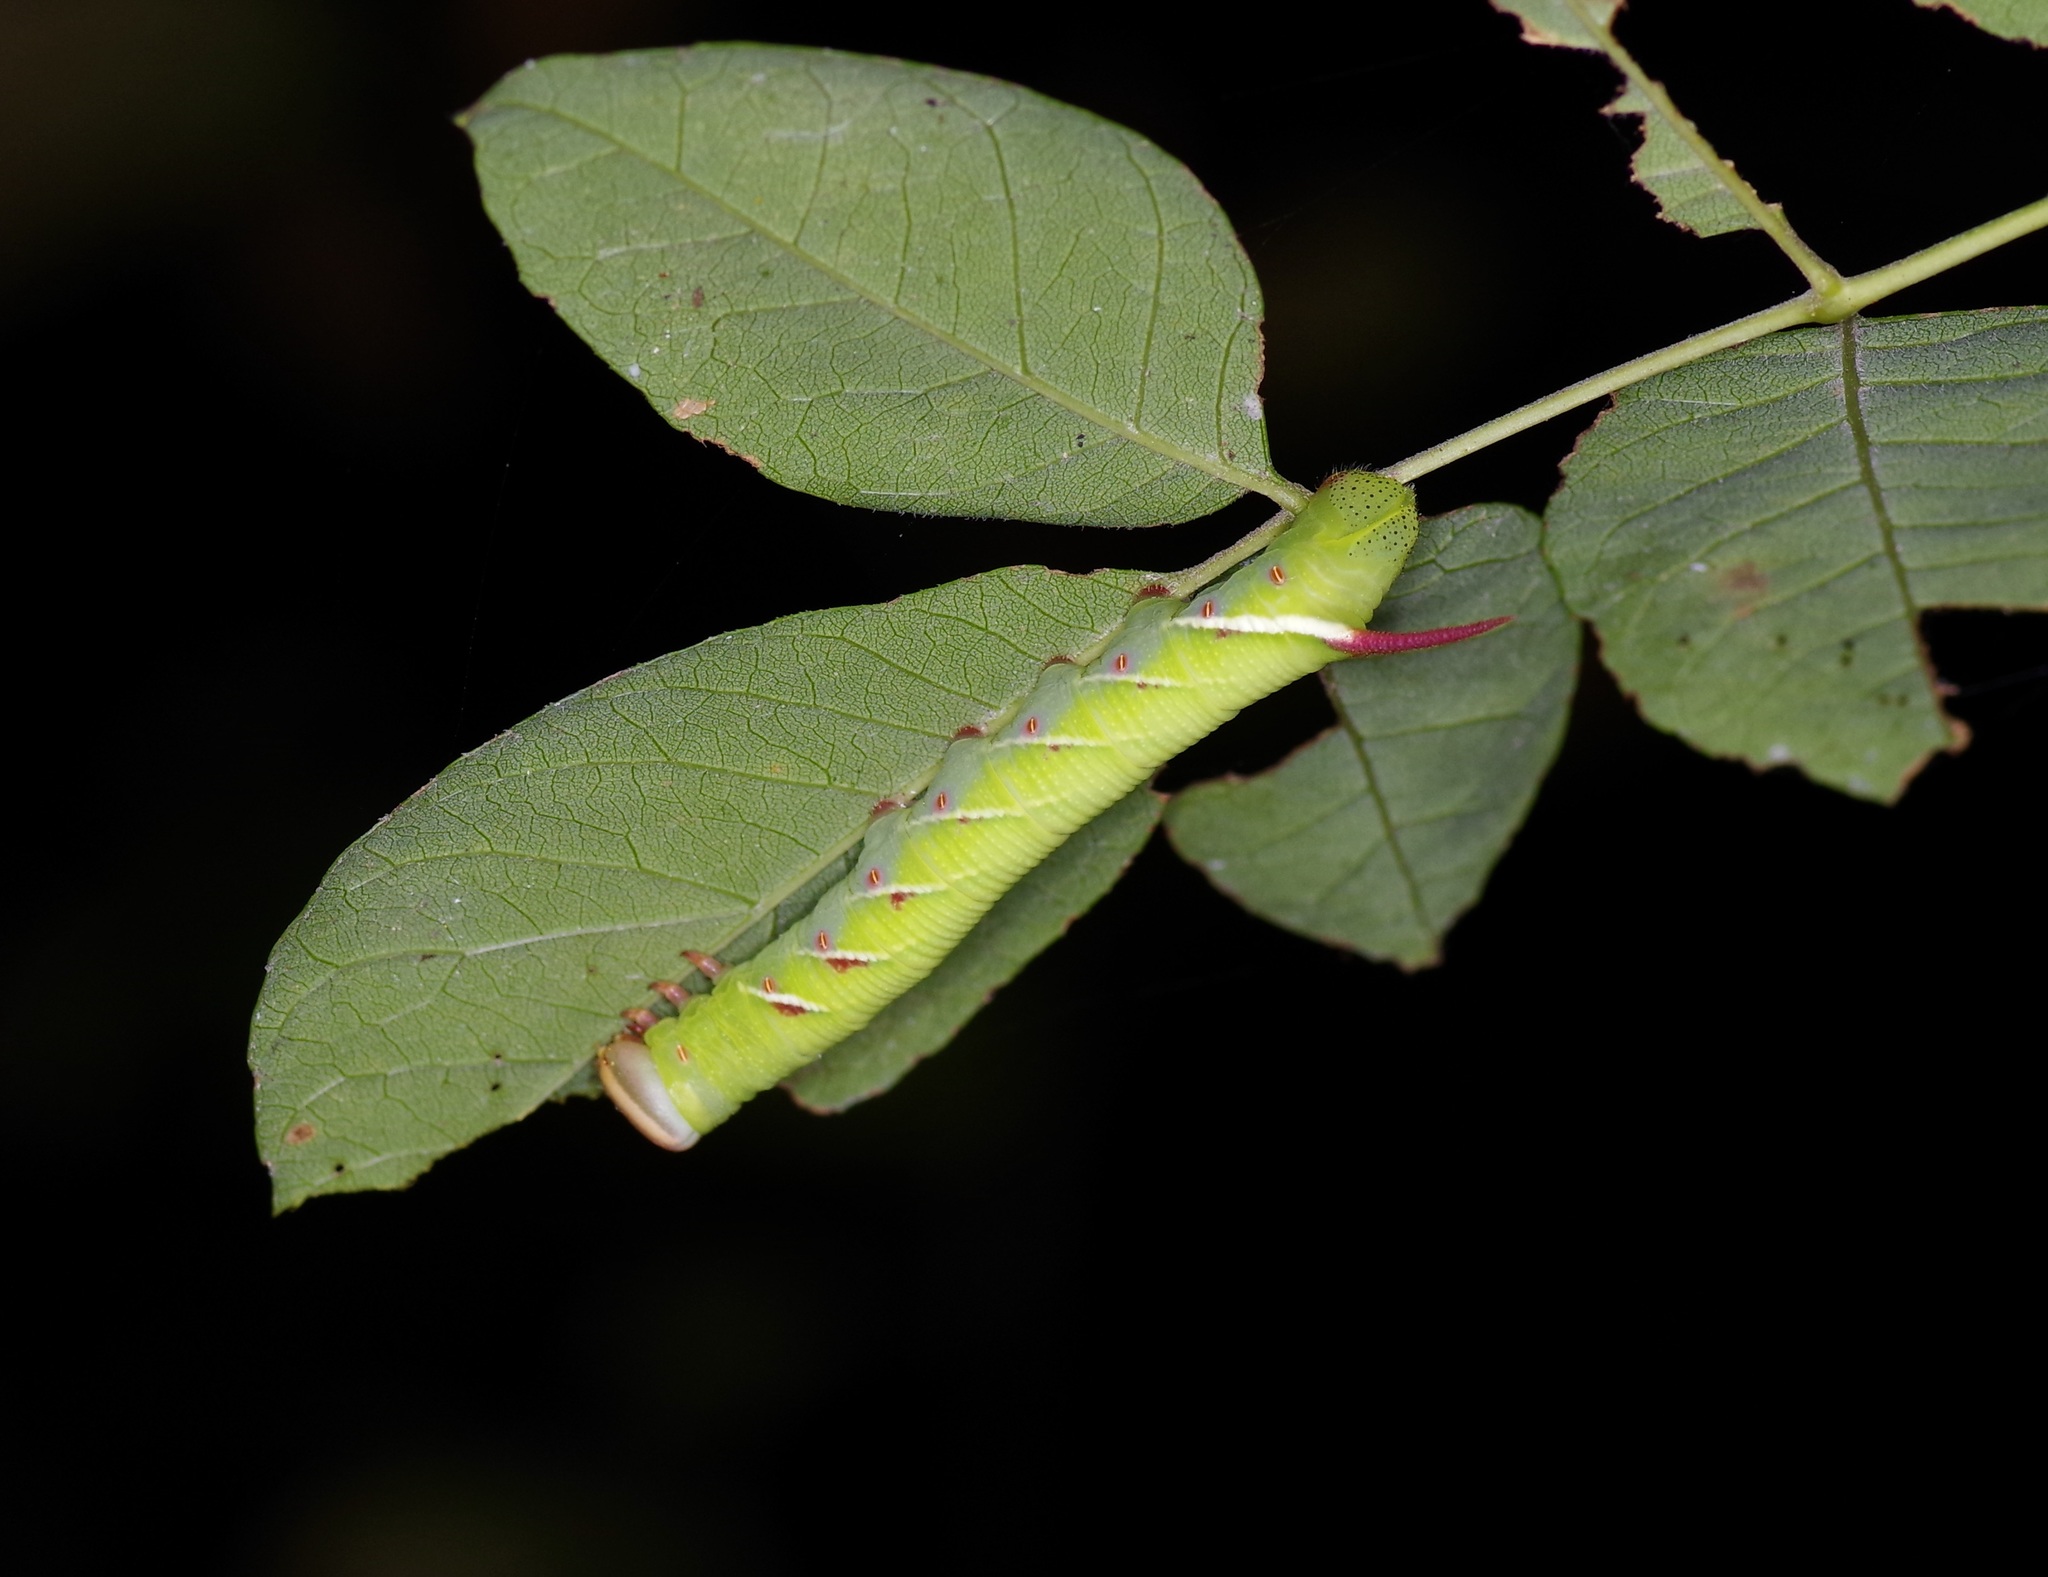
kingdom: Animalia
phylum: Arthropoda
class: Insecta
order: Lepidoptera
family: Sphingidae
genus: Ceratomia
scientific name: Ceratomia undulosa
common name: Waved sphinx
